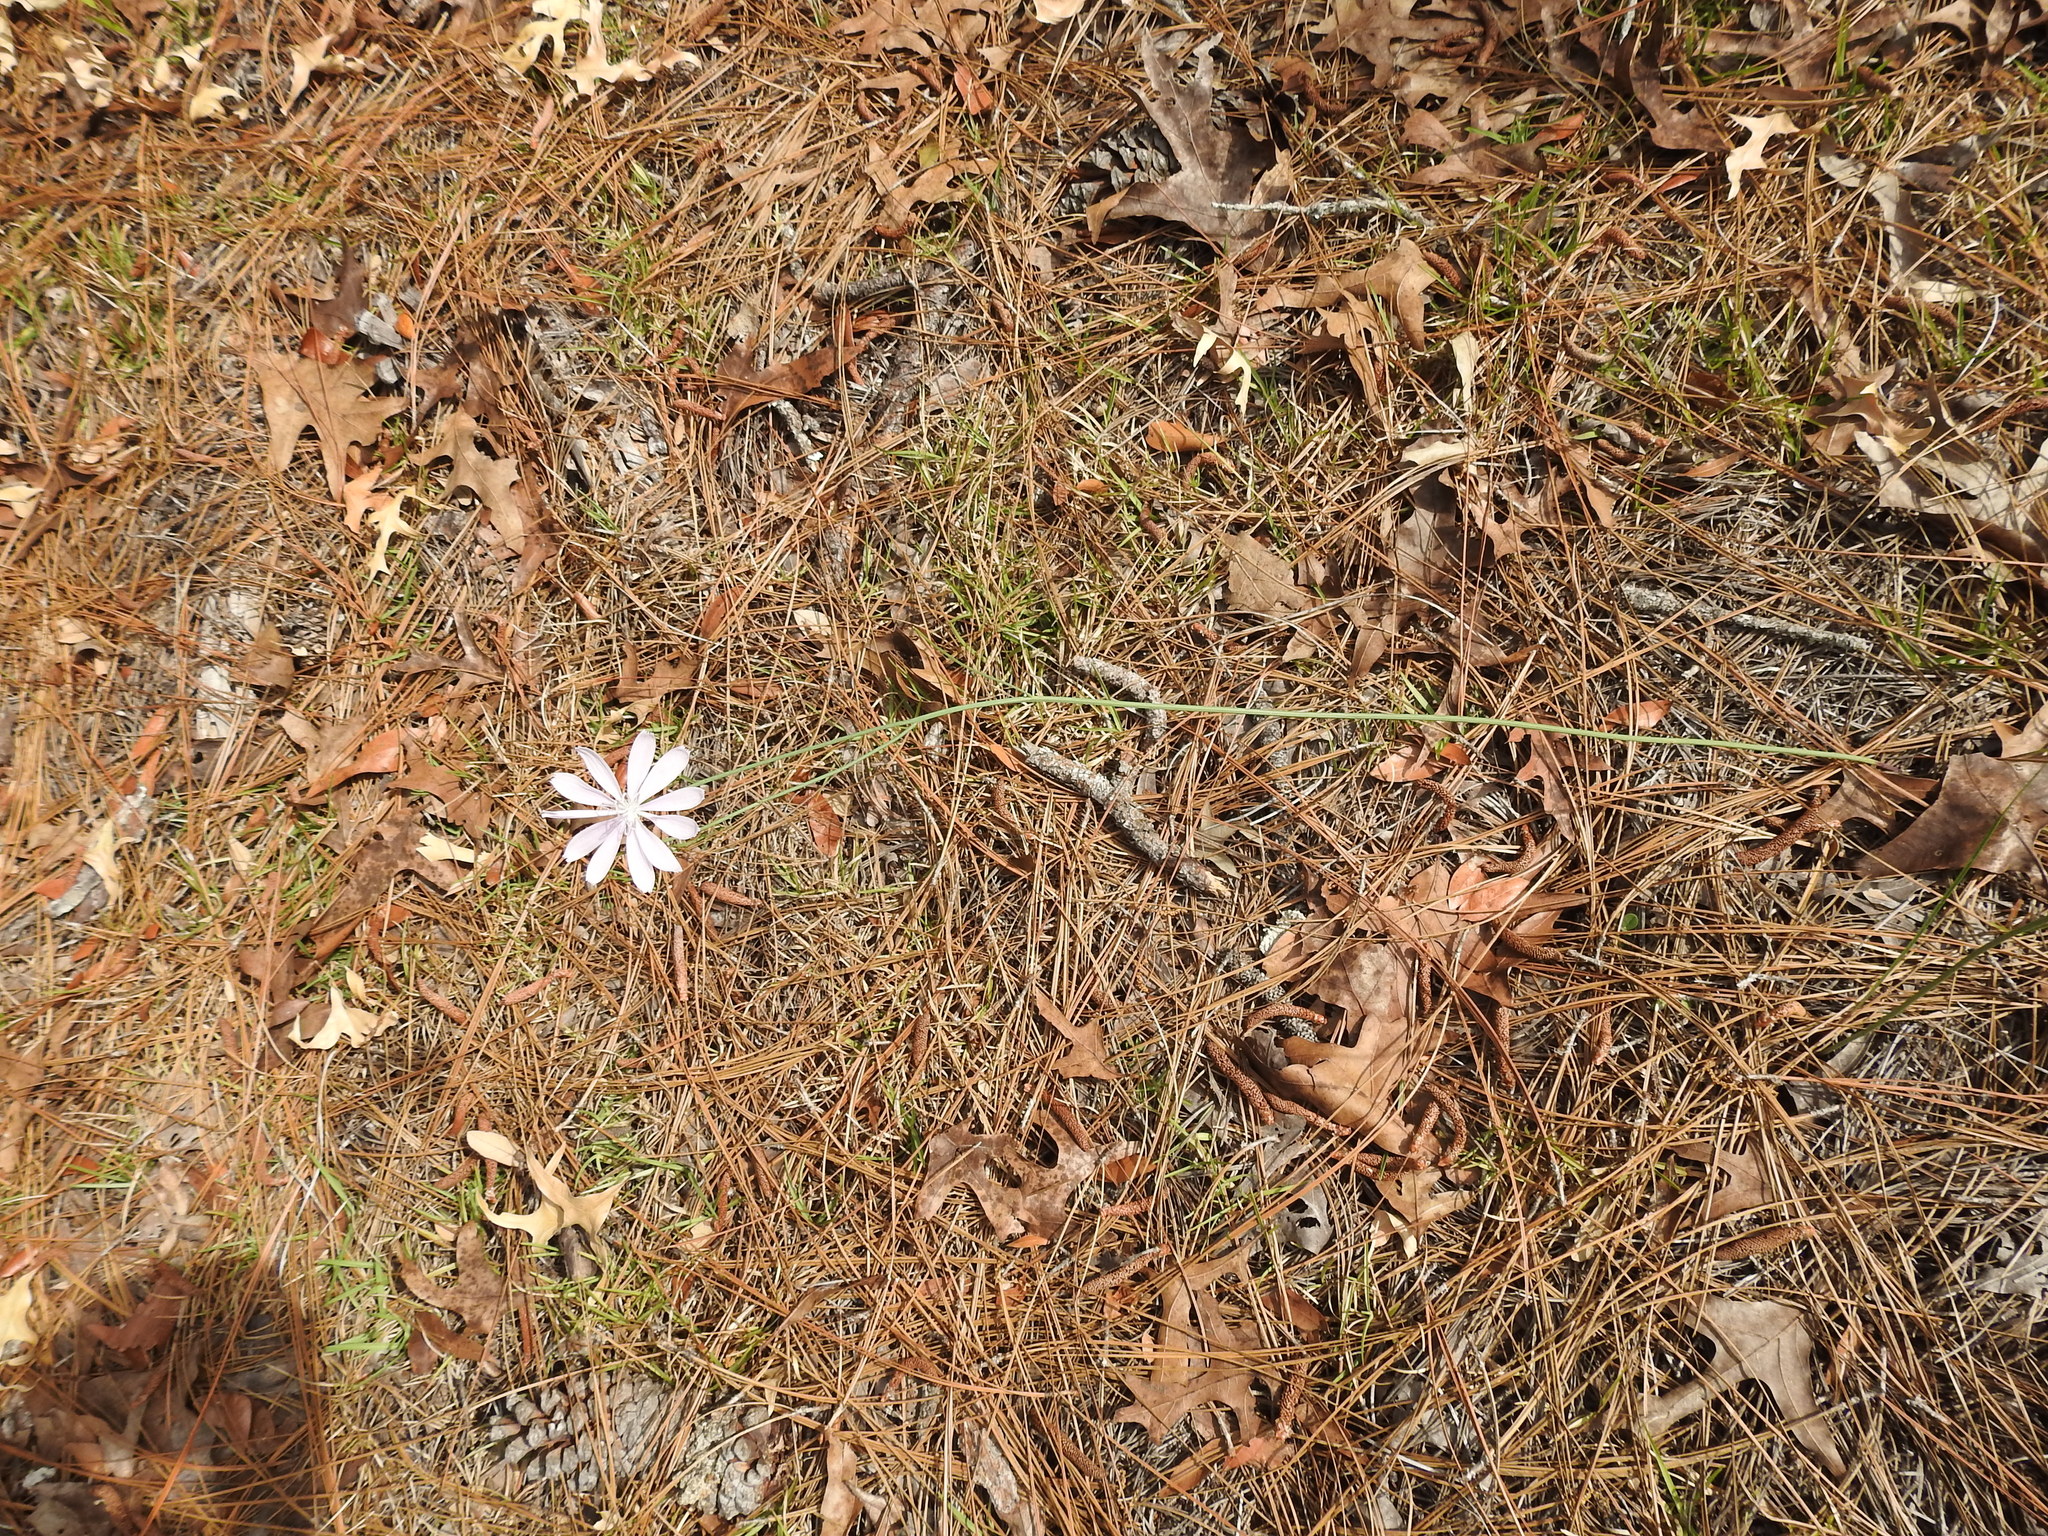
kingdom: Plantae
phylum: Tracheophyta
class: Magnoliopsida
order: Asterales
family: Asteraceae
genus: Lygodesmia
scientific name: Lygodesmia aphylla
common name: Rose-rush
